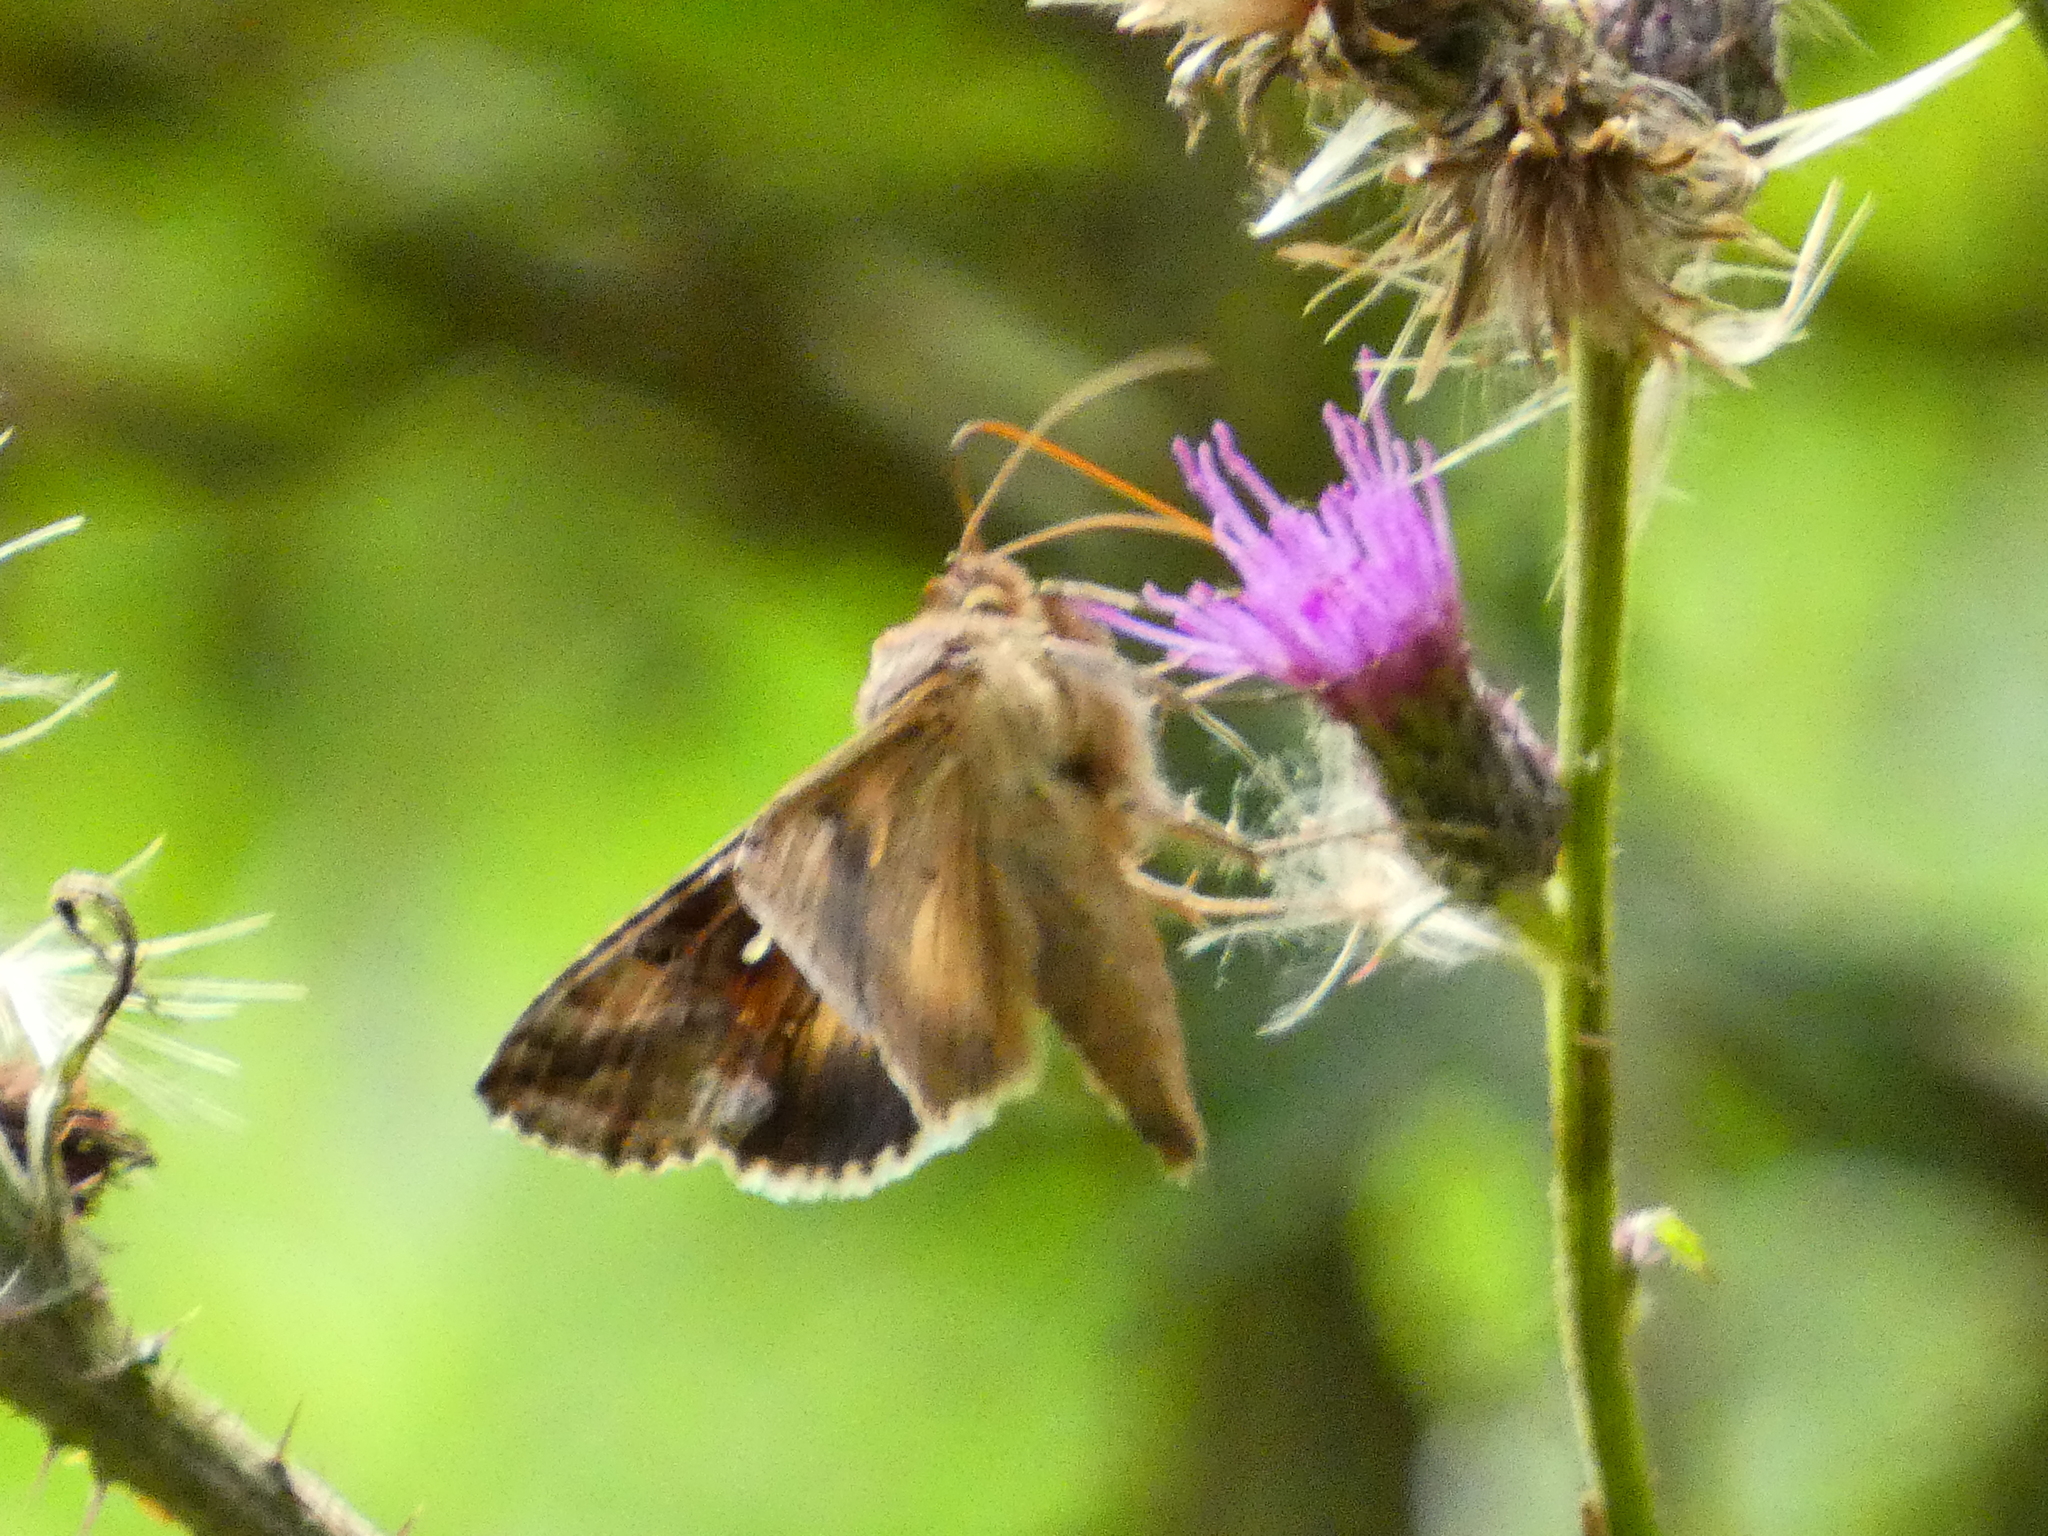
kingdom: Animalia
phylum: Arthropoda
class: Insecta
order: Lepidoptera
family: Noctuidae
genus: Autographa
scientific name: Autographa gamma
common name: Silver y
